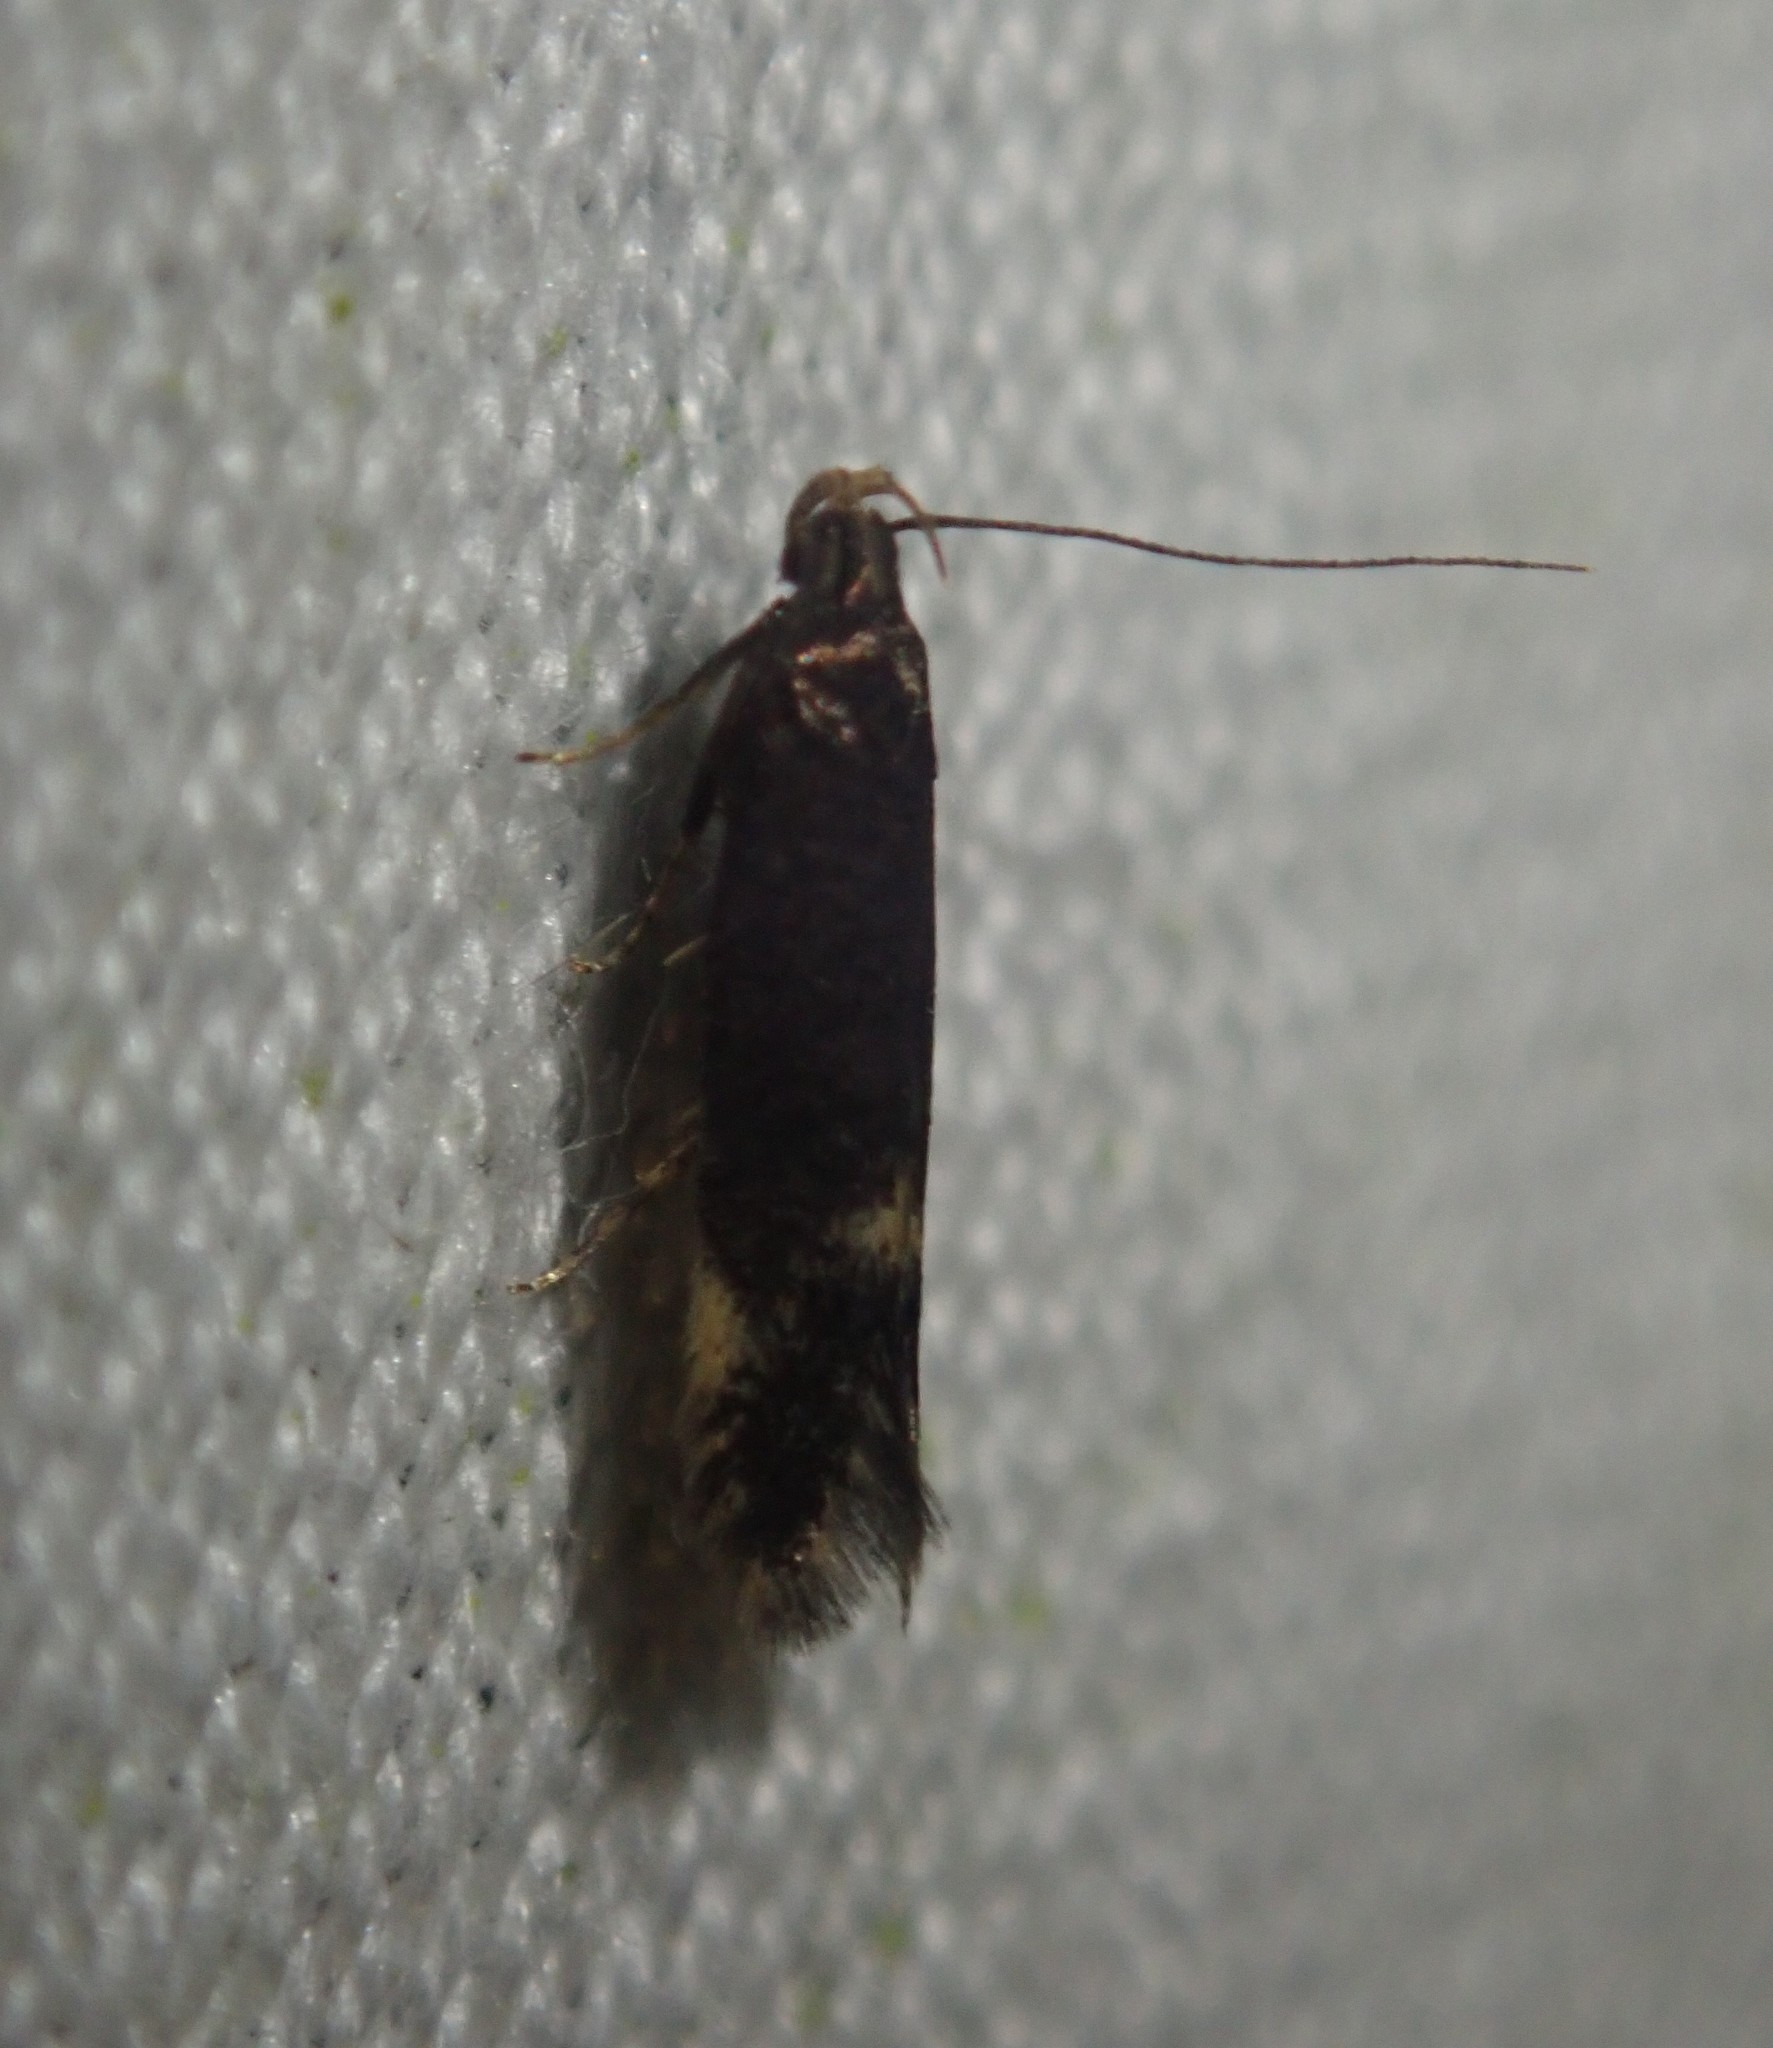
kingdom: Animalia
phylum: Arthropoda
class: Insecta
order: Lepidoptera
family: Gelechiidae
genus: Oxypteryx
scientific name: Oxypteryx atrella
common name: Two-spotted neb
